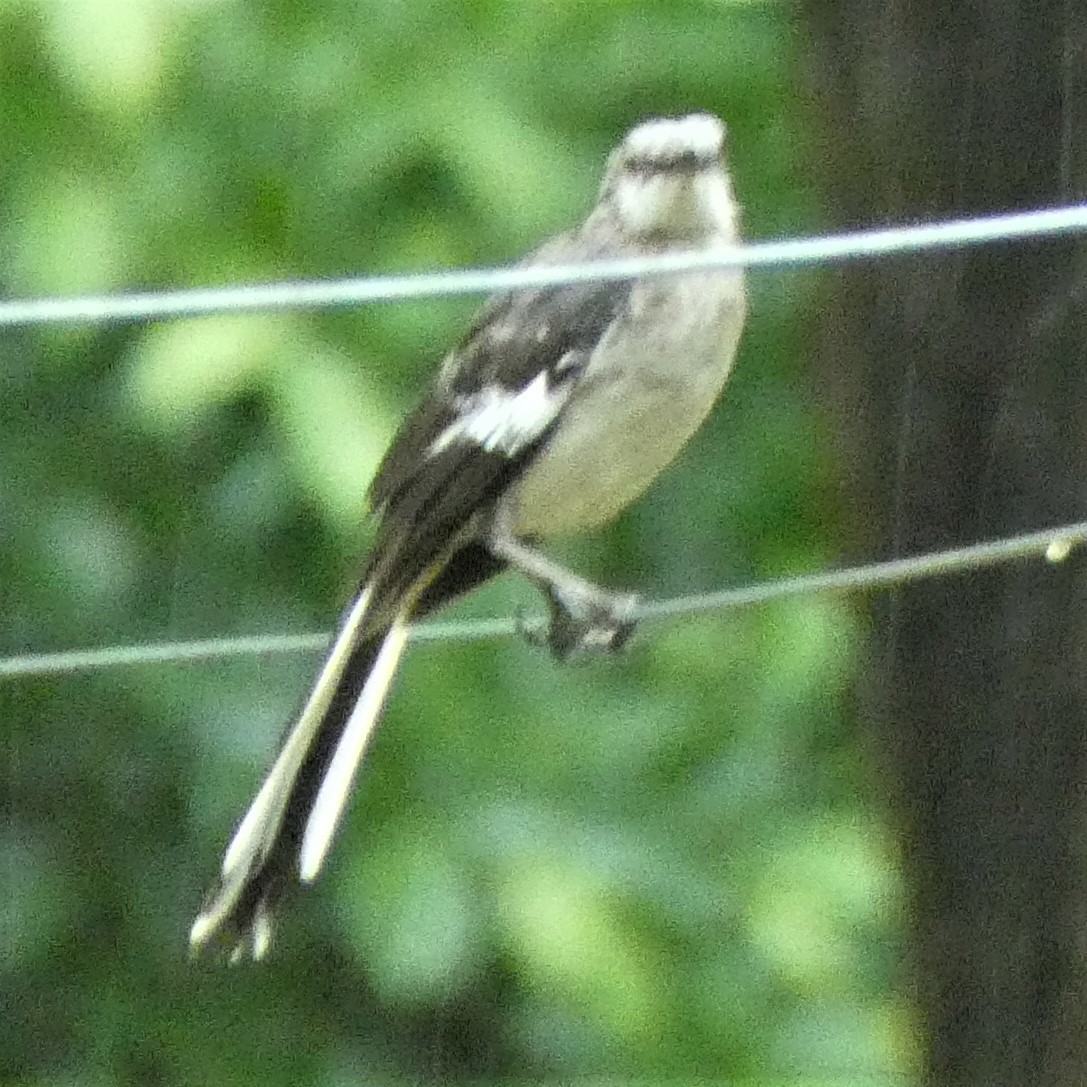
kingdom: Animalia
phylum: Chordata
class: Aves
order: Passeriformes
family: Mimidae
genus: Mimus
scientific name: Mimus polyglottos
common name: Northern mockingbird
